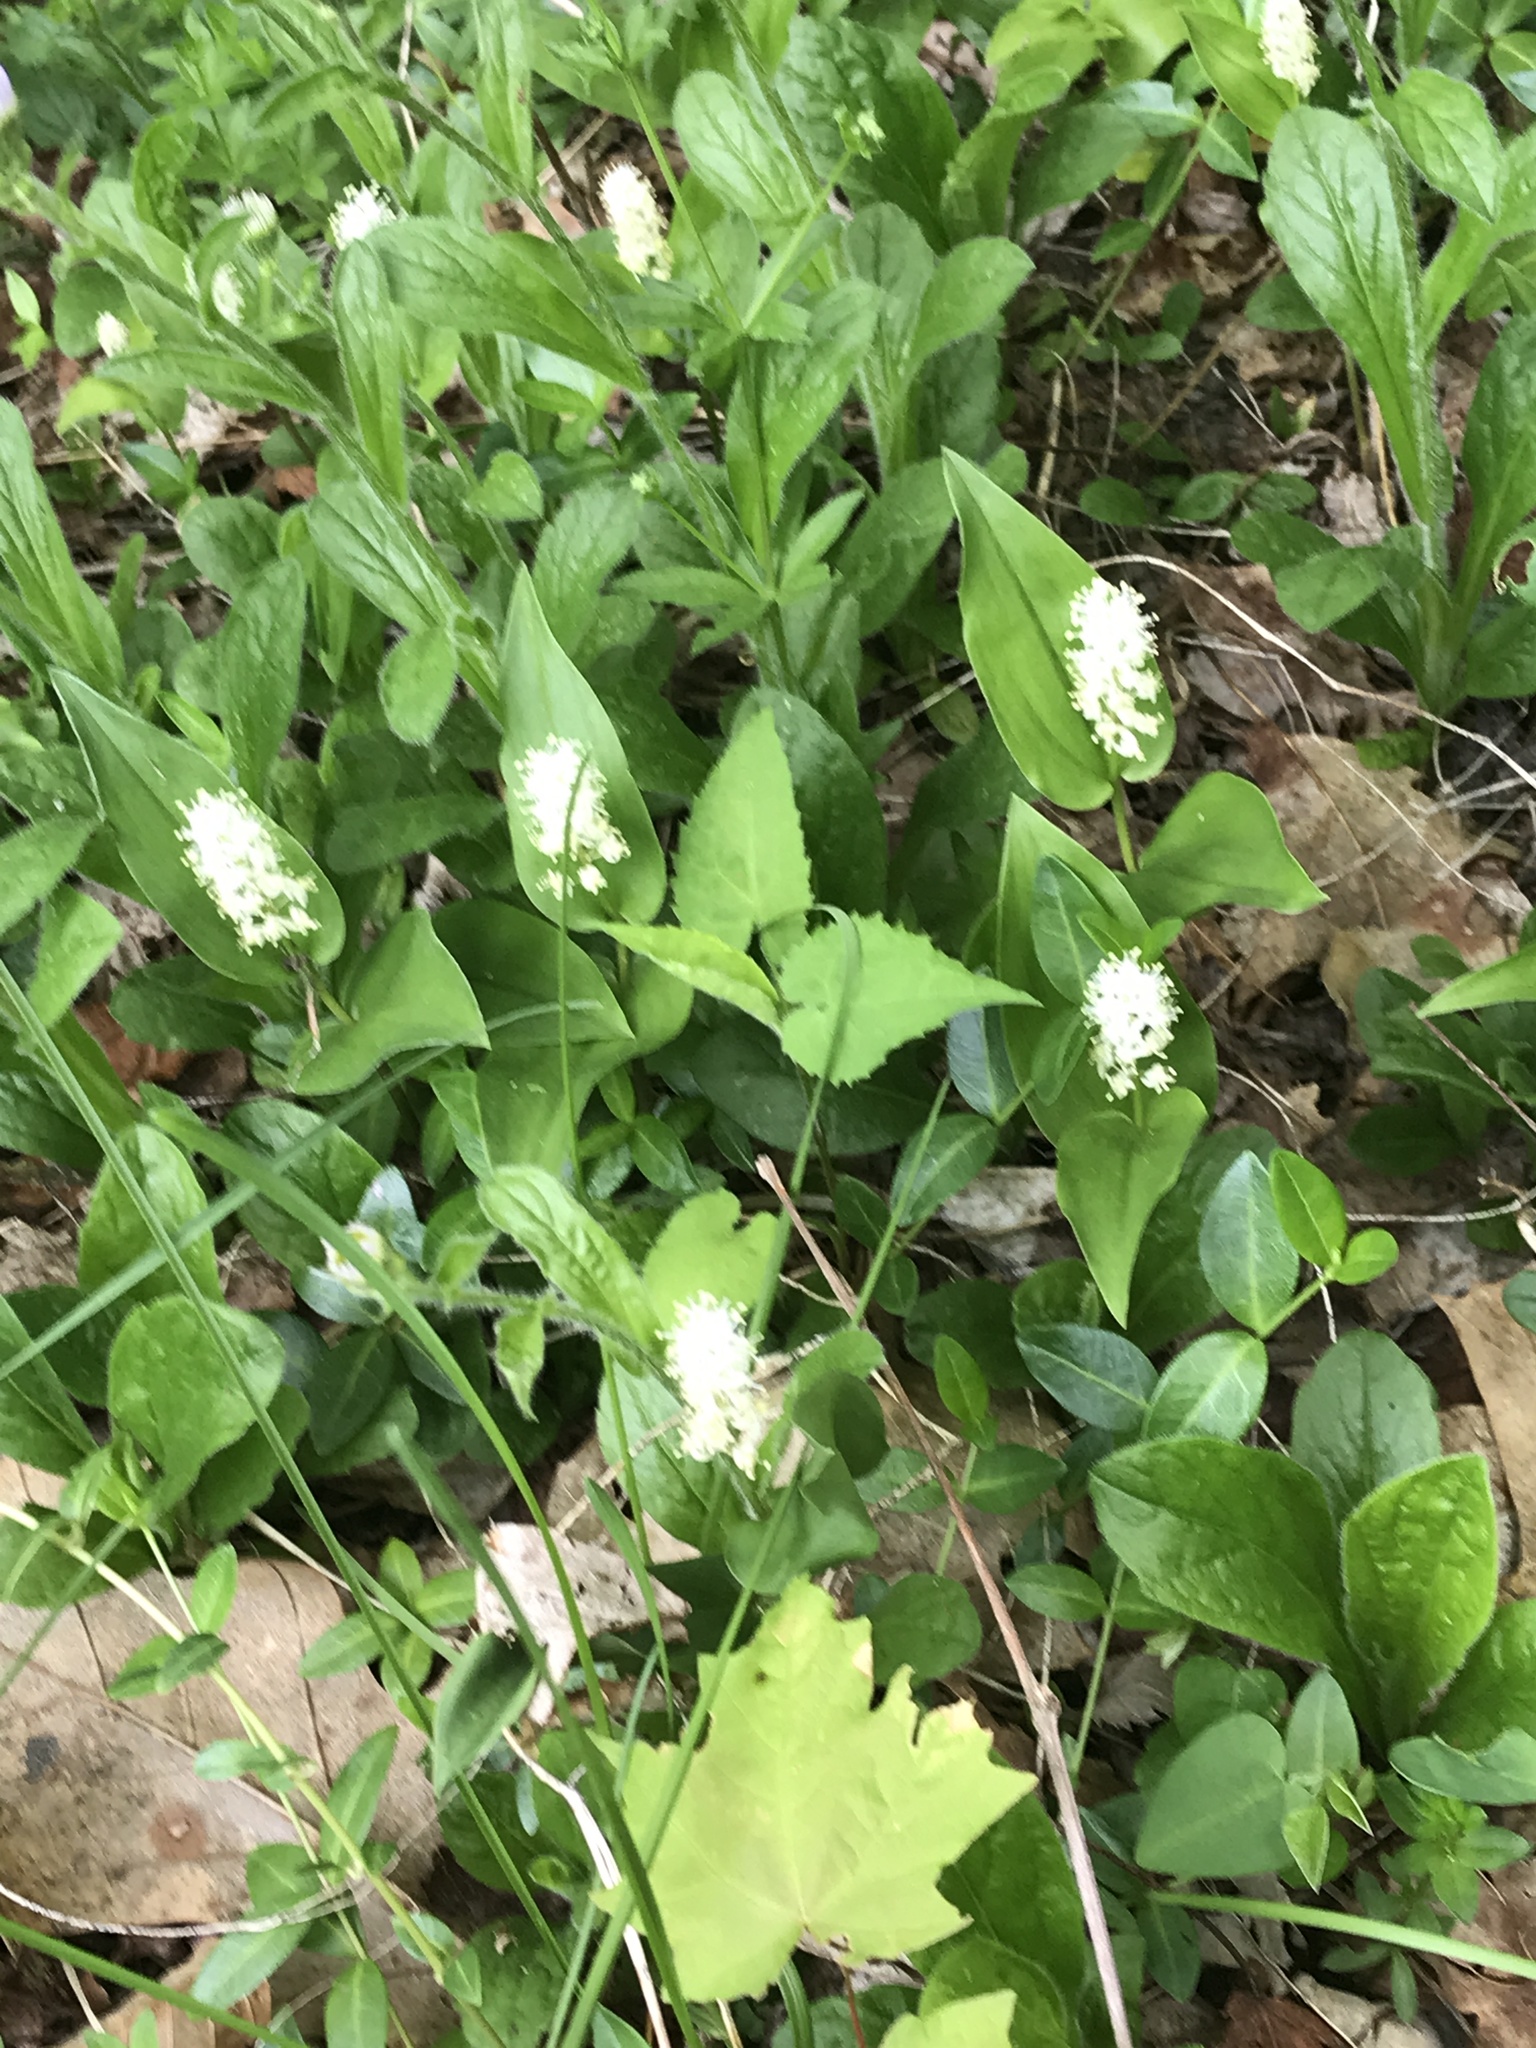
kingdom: Plantae
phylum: Tracheophyta
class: Liliopsida
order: Asparagales
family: Asparagaceae
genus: Maianthemum
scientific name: Maianthemum canadense
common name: False lily-of-the-valley
